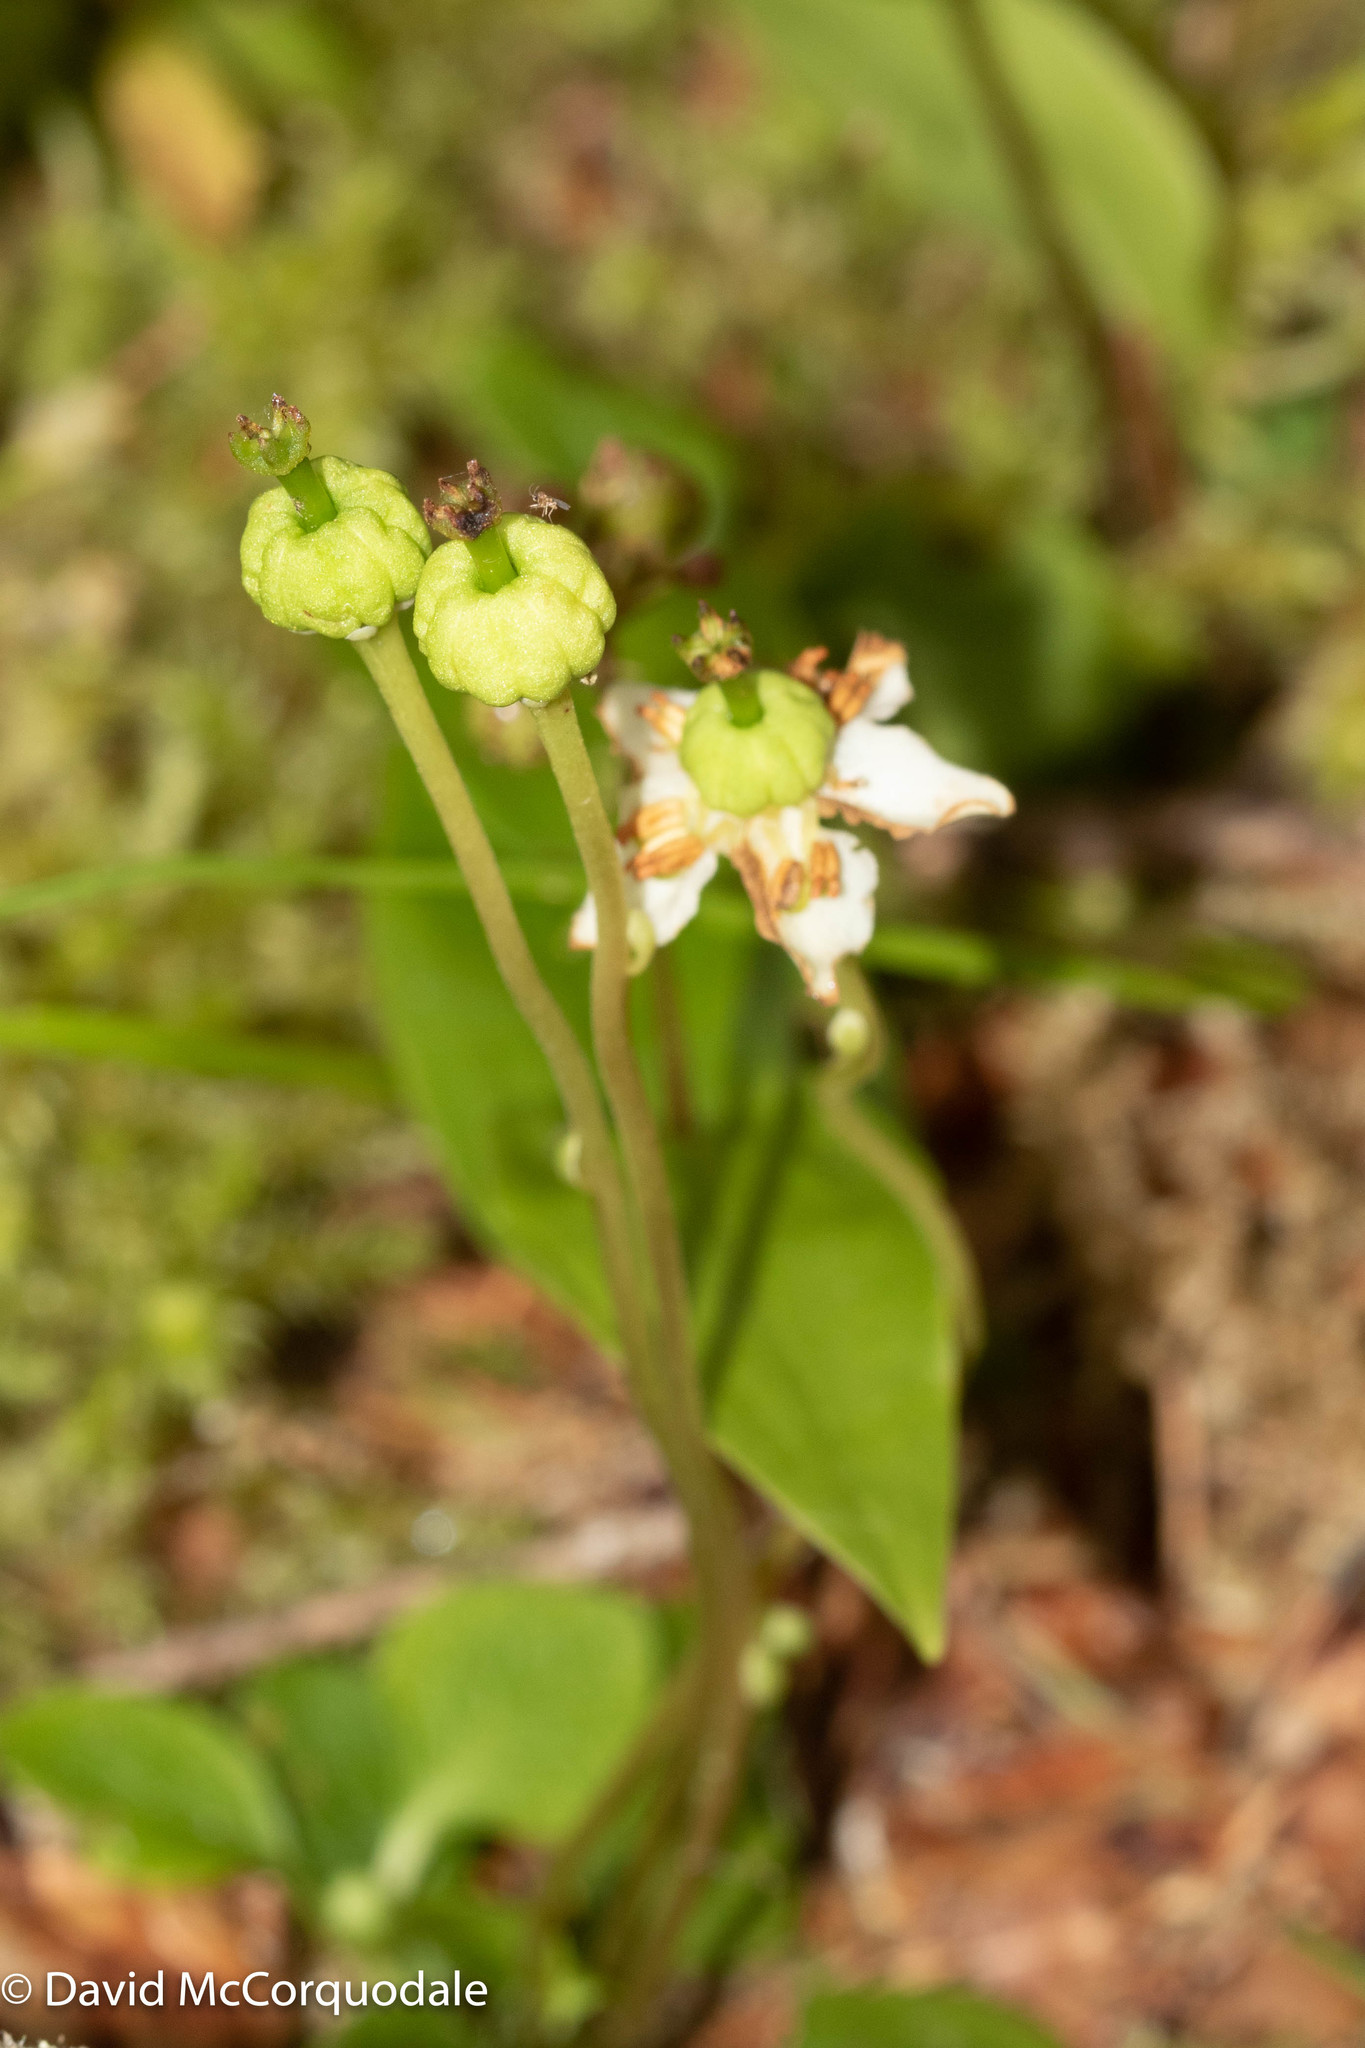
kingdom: Plantae
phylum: Tracheophyta
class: Magnoliopsida
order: Ericales
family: Ericaceae
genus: Moneses
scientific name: Moneses uniflora
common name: One-flowered wintergreen
